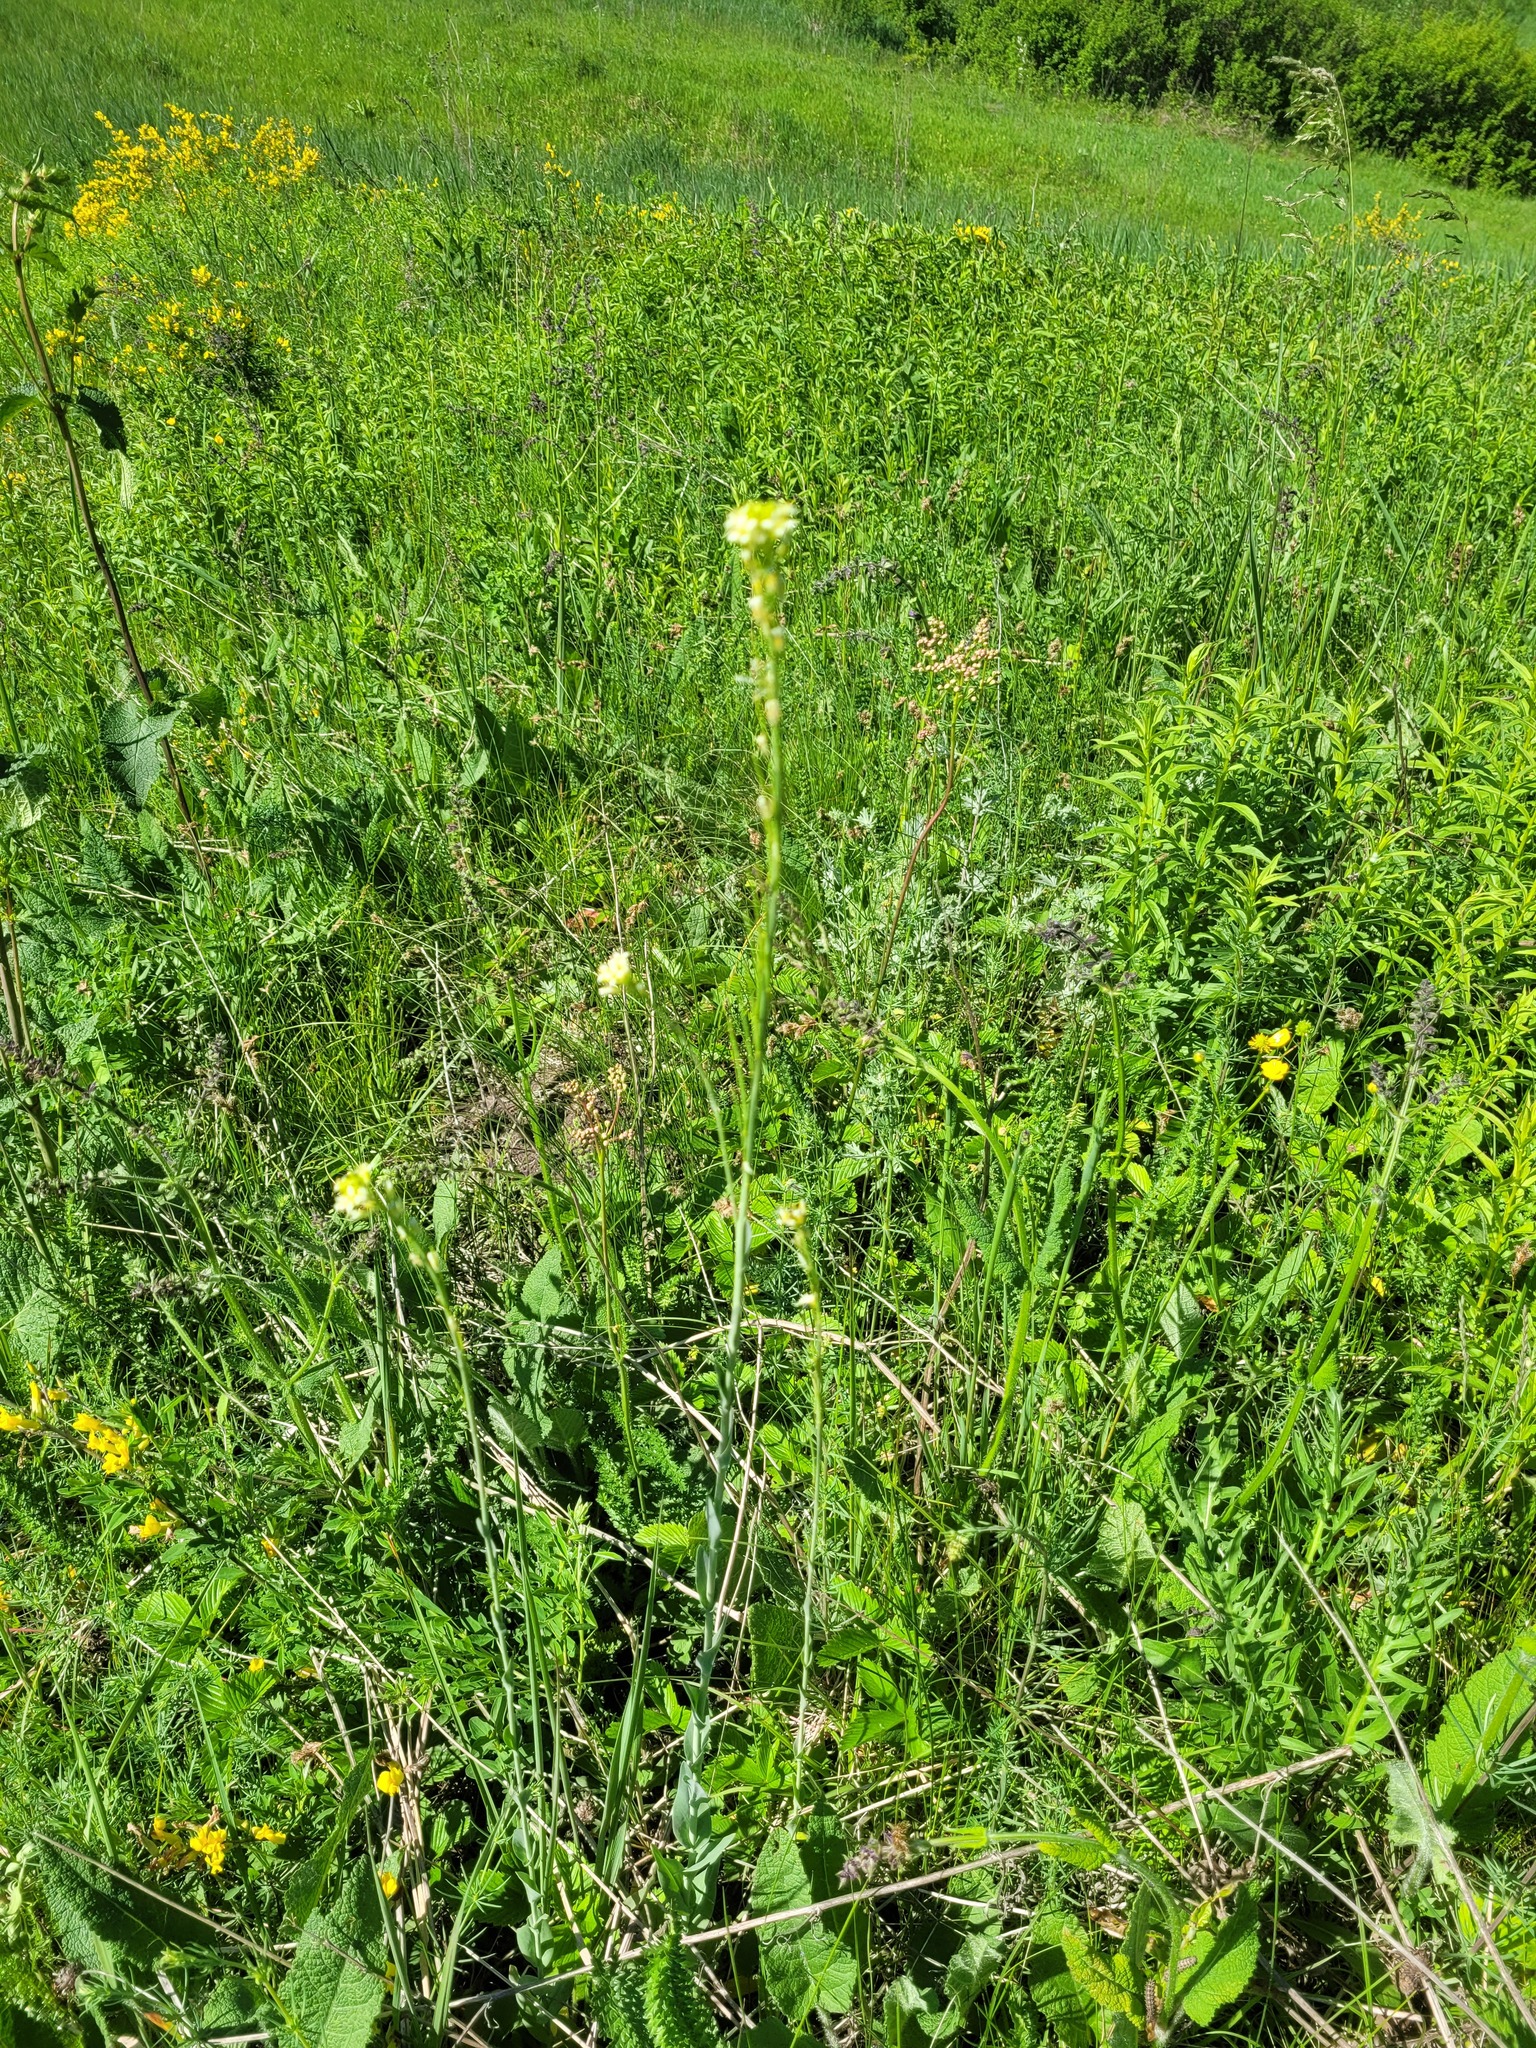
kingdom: Plantae
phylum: Tracheophyta
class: Magnoliopsida
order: Brassicales
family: Brassicaceae
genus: Turritis
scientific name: Turritis glabra
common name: Tower rockcress
